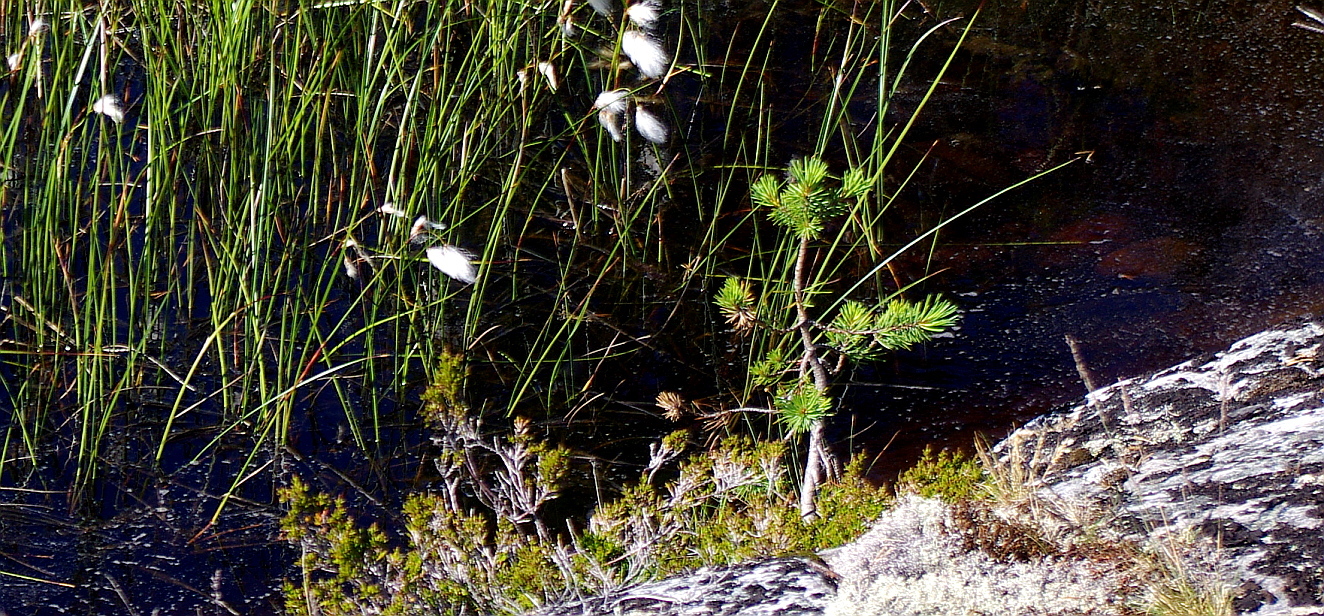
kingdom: Plantae
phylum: Tracheophyta
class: Pinopsida
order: Pinales
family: Pinaceae
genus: Pinus
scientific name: Pinus sylvestris
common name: Scots pine
